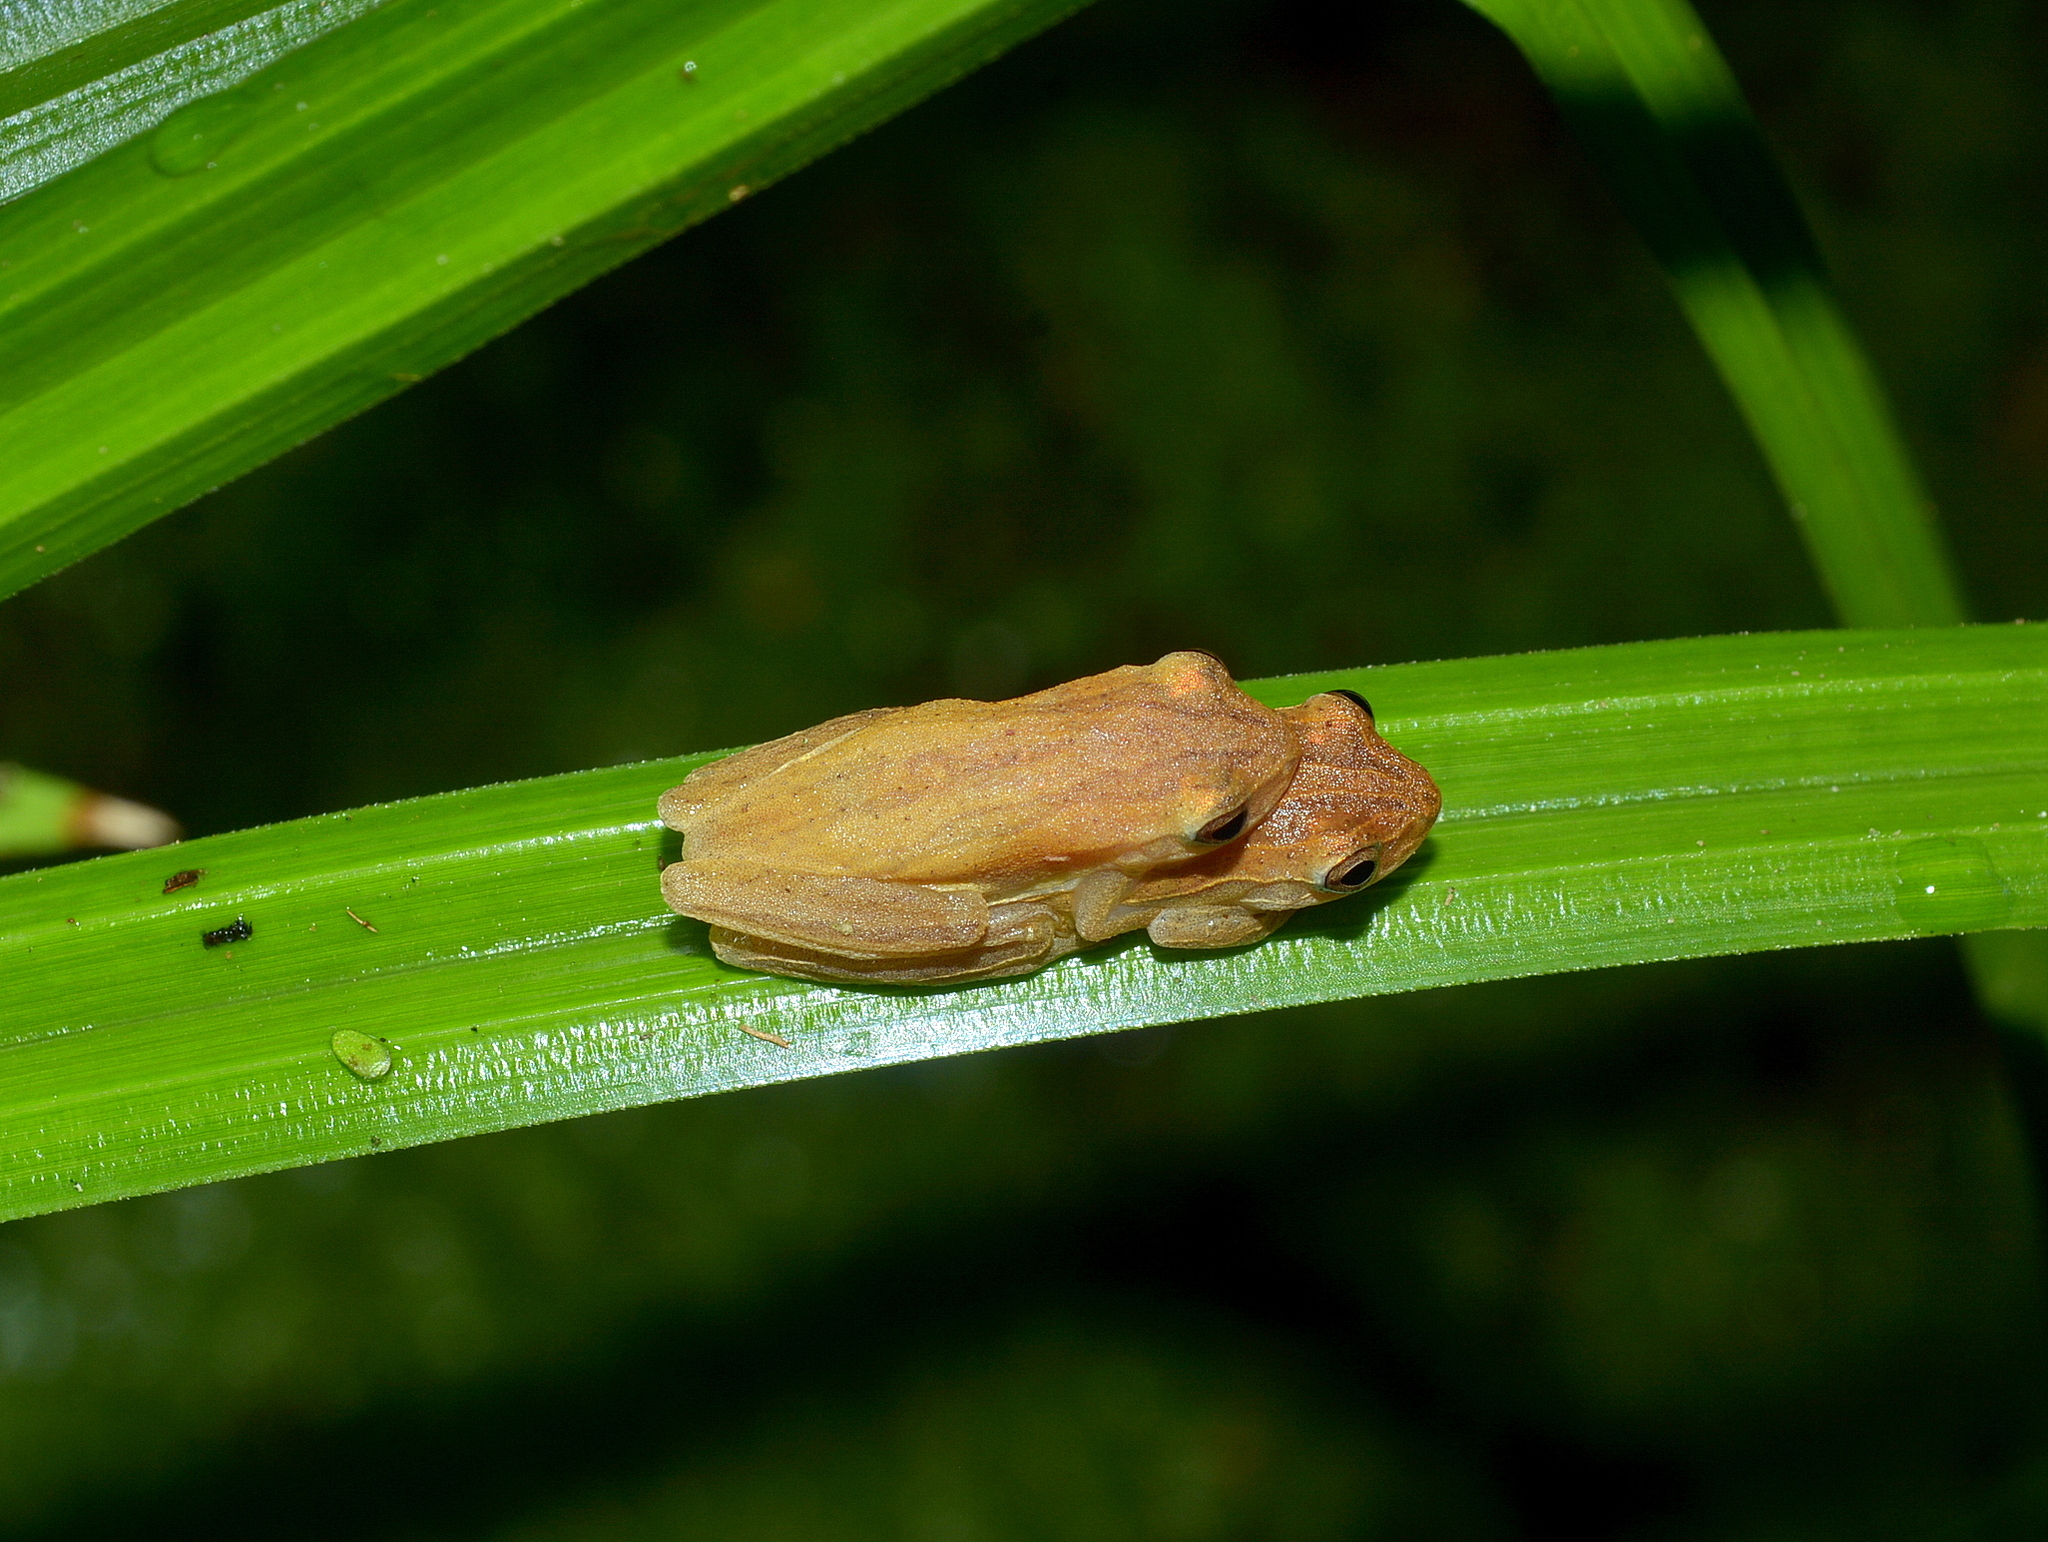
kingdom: Animalia
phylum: Chordata
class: Amphibia
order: Anura
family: Hylidae
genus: Dendropsophus
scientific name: Dendropsophus minutus
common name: Lesser treefrog
